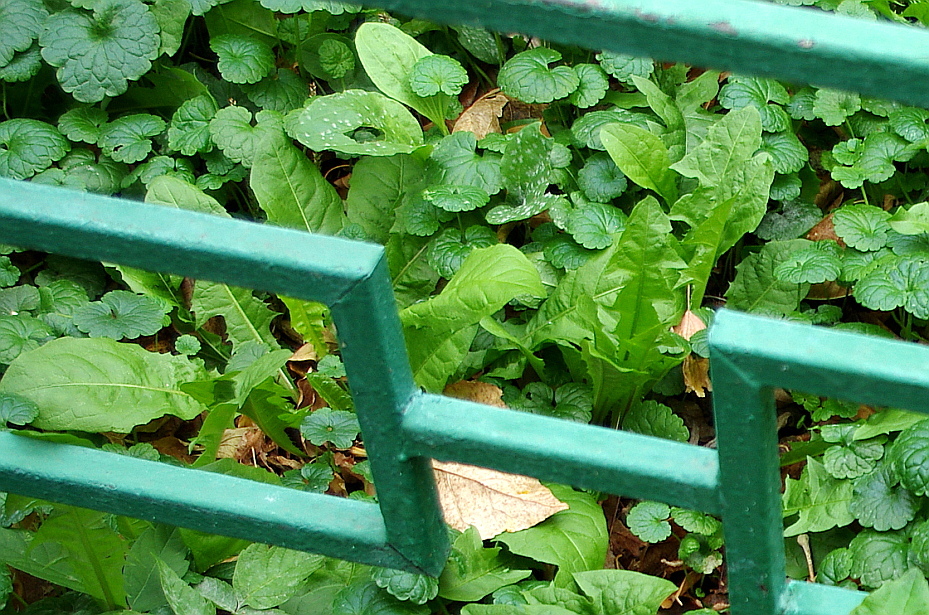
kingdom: Plantae
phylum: Tracheophyta
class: Magnoliopsida
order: Asterales
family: Asteraceae
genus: Taraxacum
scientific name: Taraxacum officinale
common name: Common dandelion
